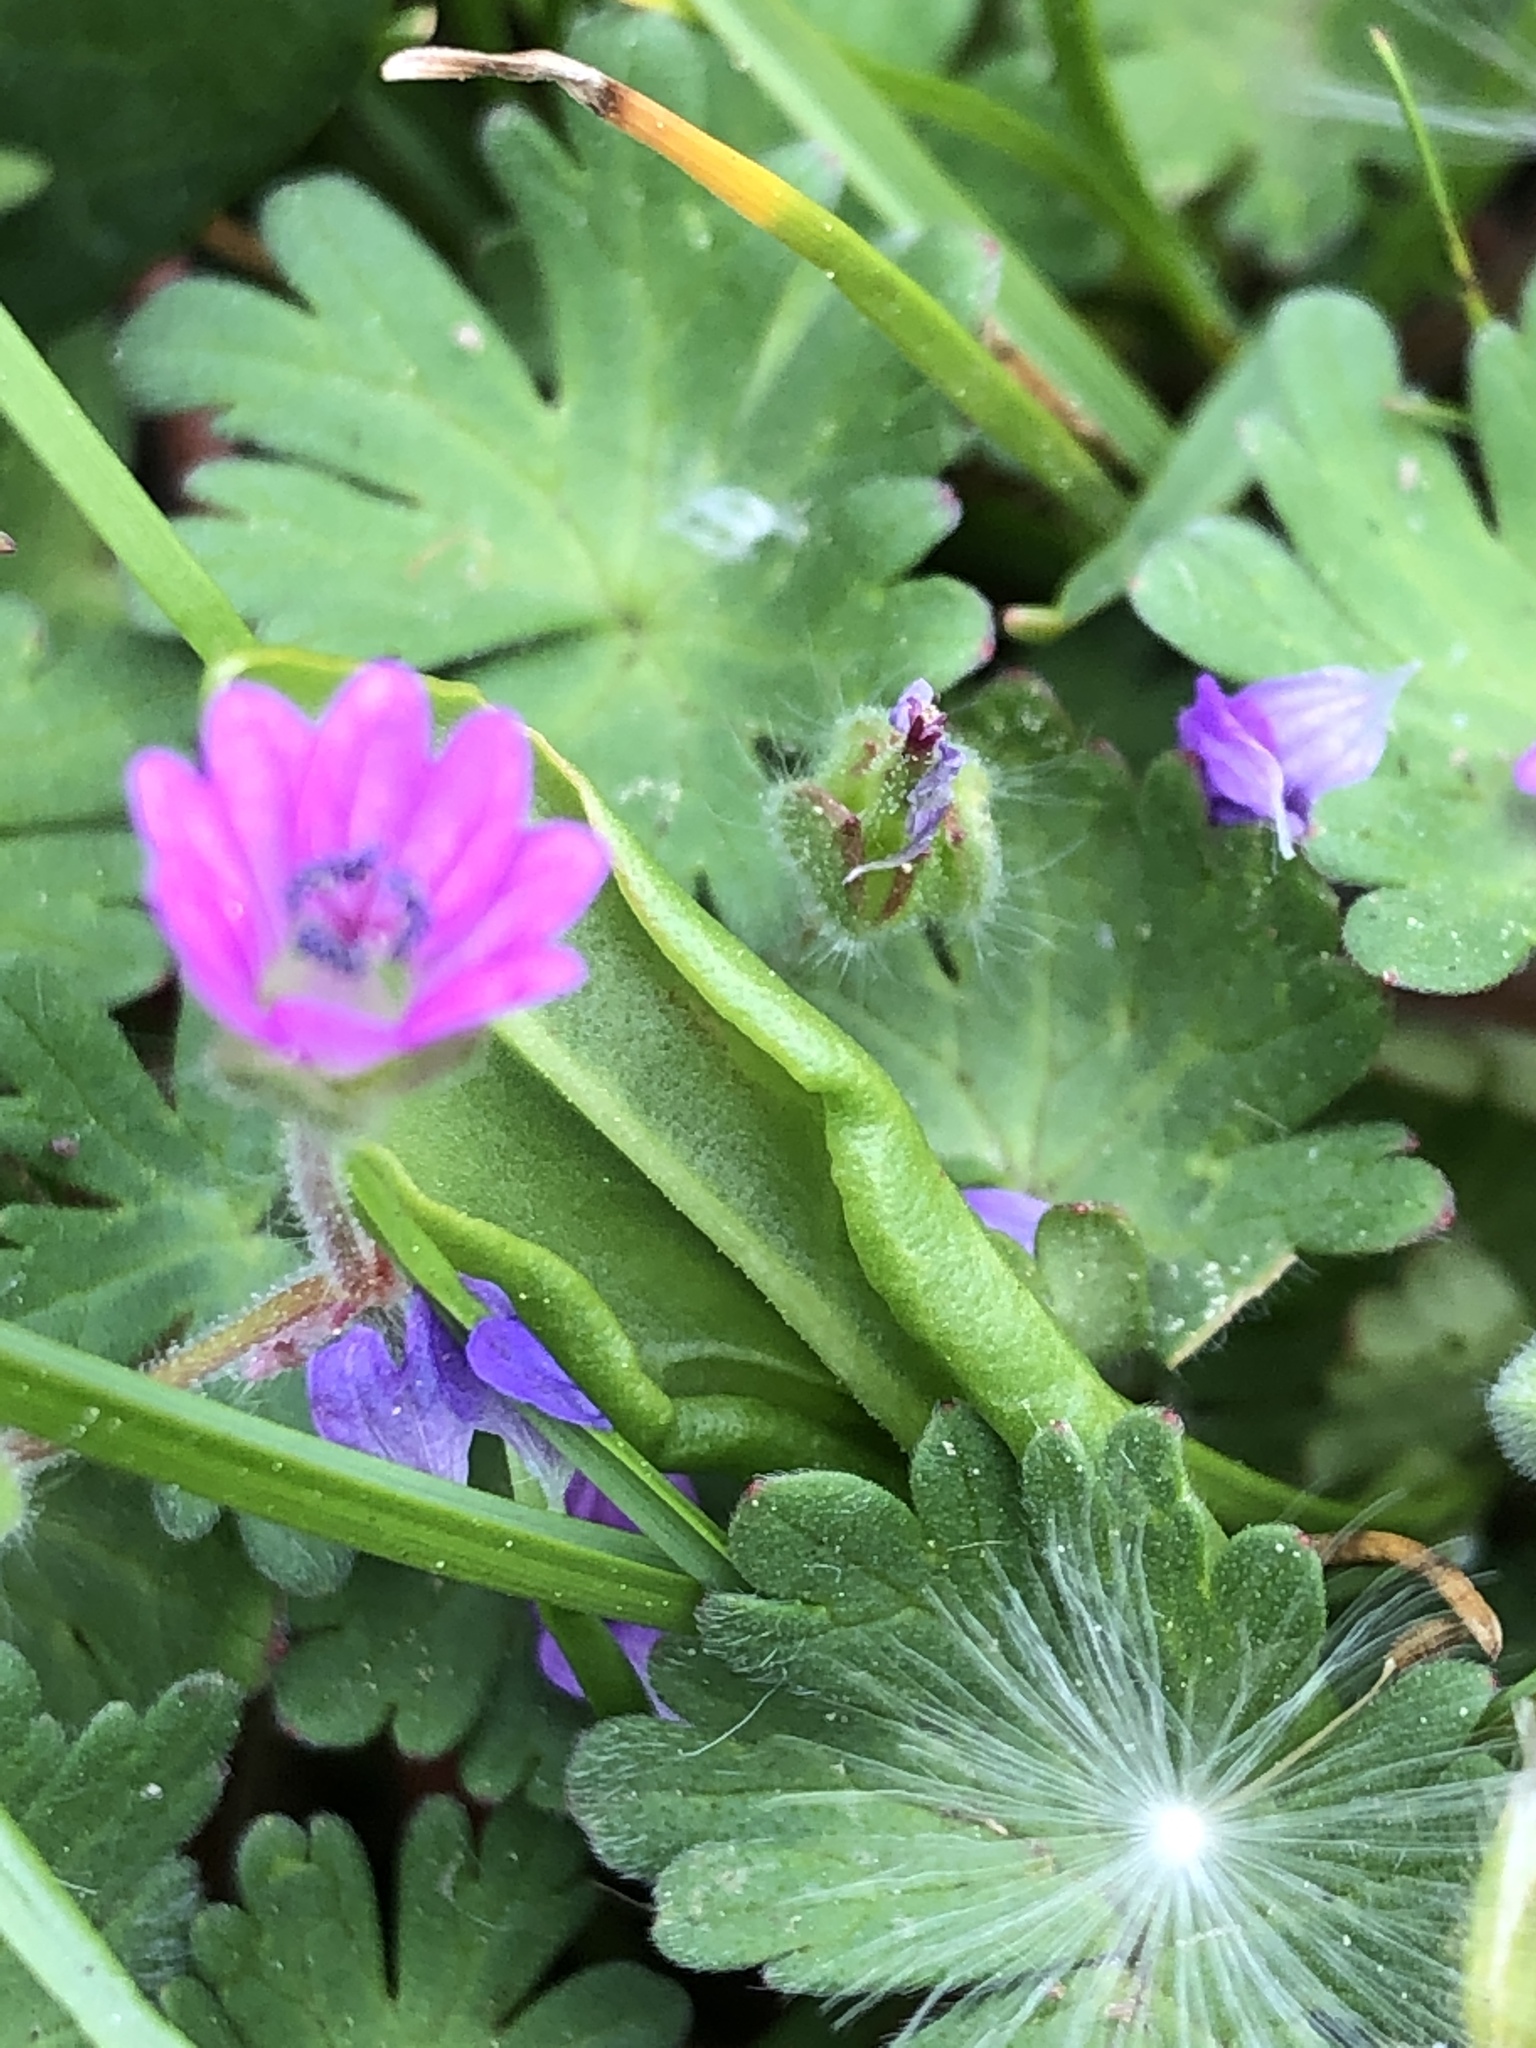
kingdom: Plantae
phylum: Tracheophyta
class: Magnoliopsida
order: Geraniales
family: Geraniaceae
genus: Geranium
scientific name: Geranium molle
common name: Dove's-foot crane's-bill
